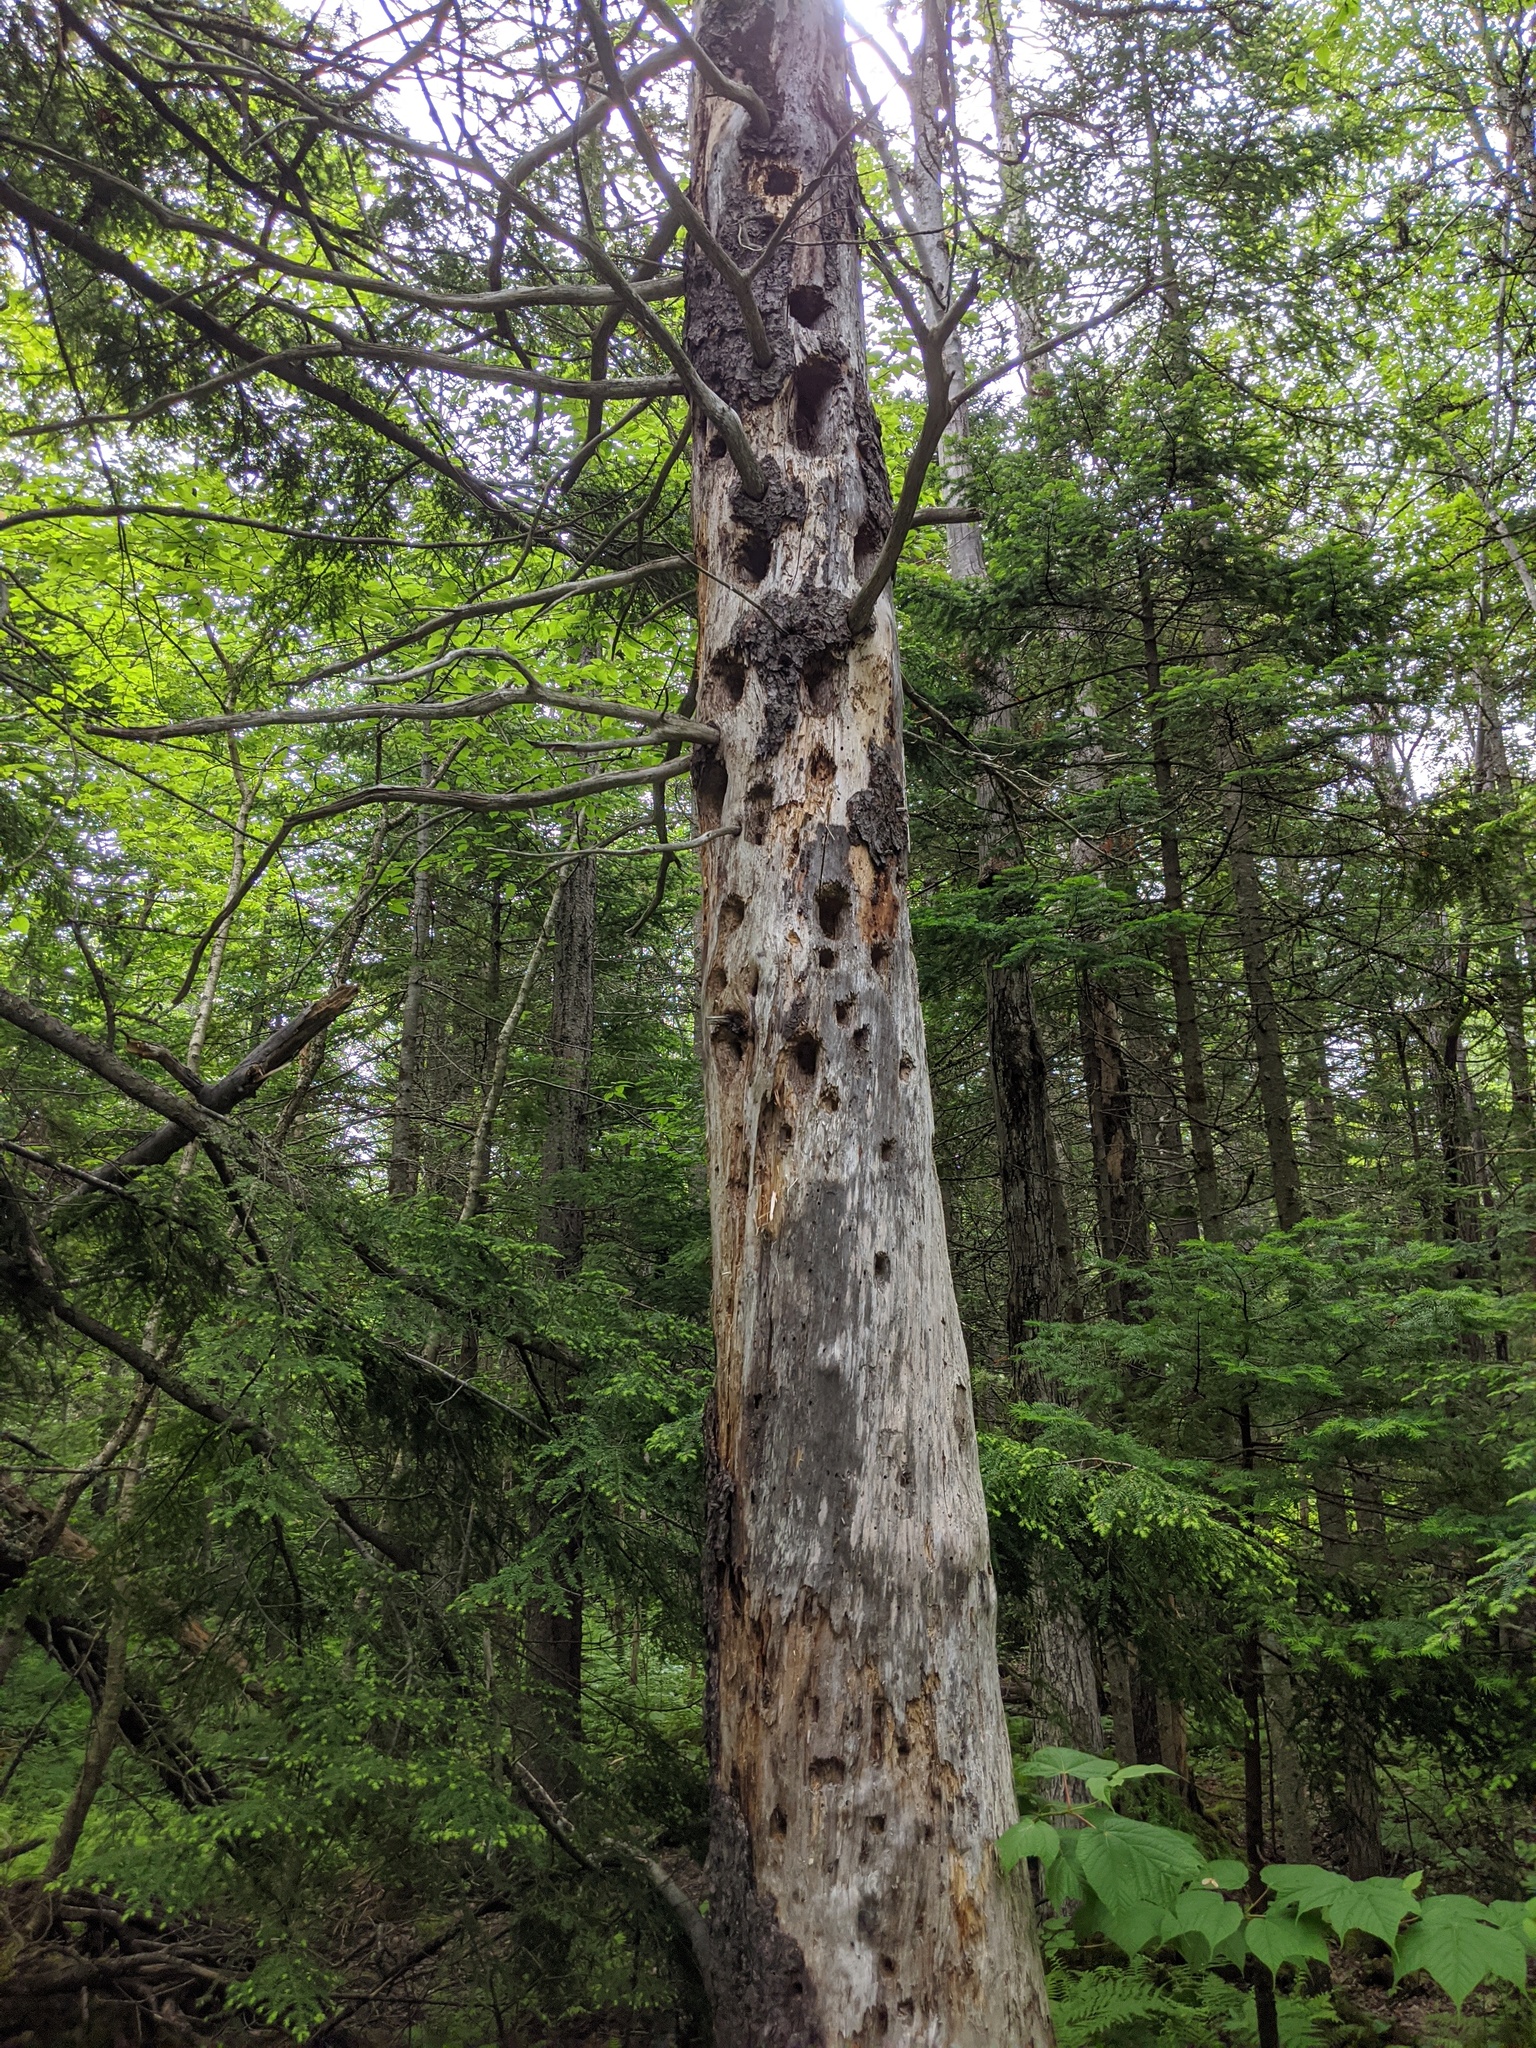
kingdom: Animalia
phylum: Chordata
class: Aves
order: Piciformes
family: Picidae
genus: Dryocopus
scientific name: Dryocopus pileatus
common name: Pileated woodpecker
